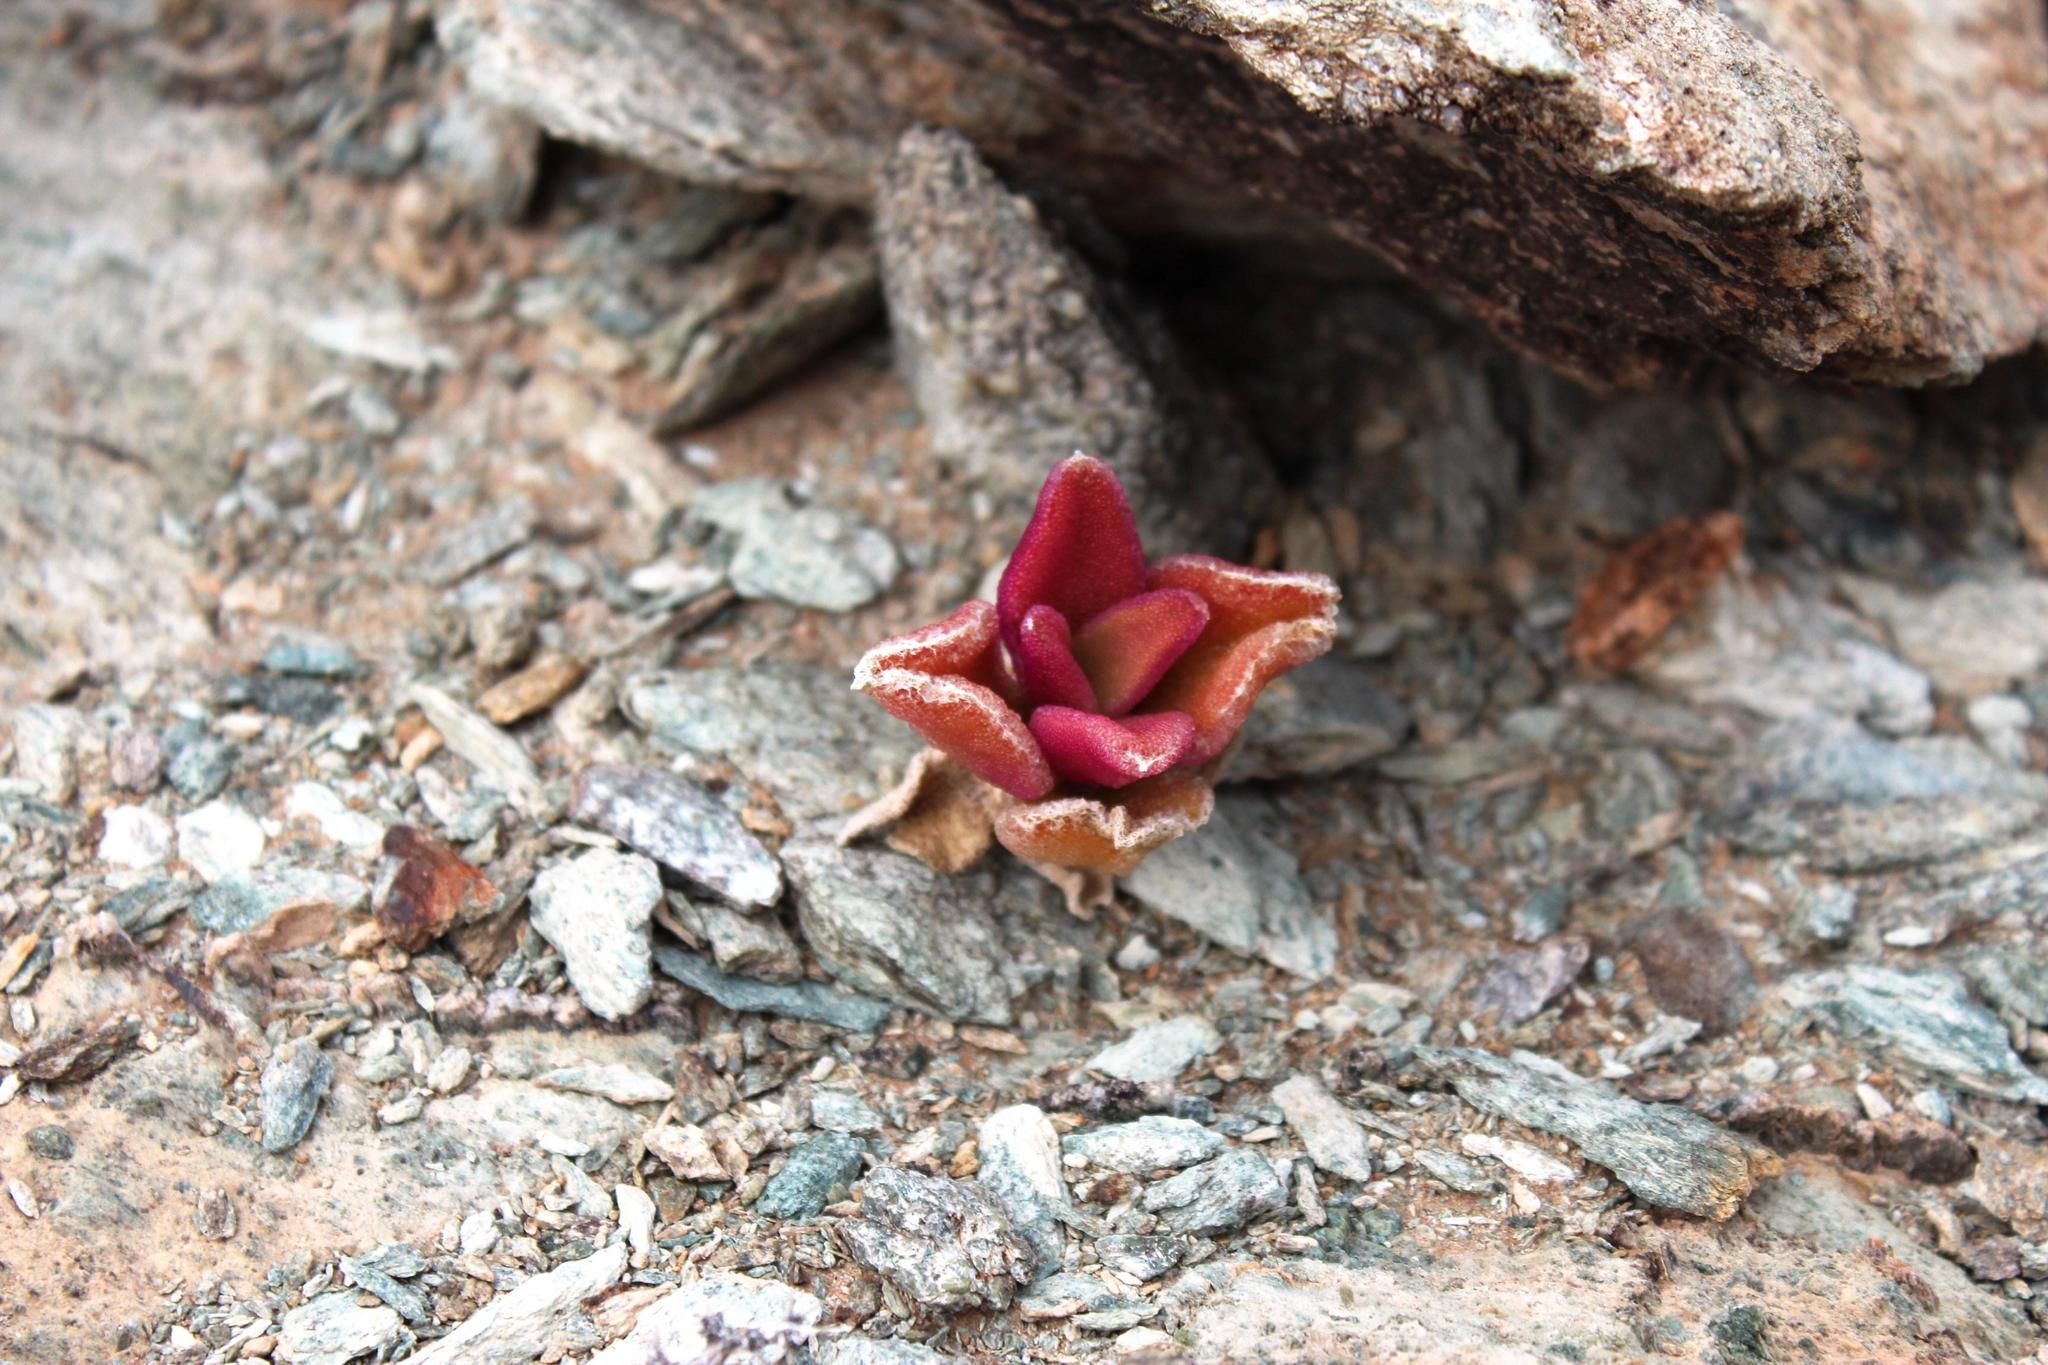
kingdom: Plantae
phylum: Tracheophyta
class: Magnoliopsida
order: Caryophyllales
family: Aizoaceae
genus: Mesembryanthemum
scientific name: Mesembryanthemum barklyi
